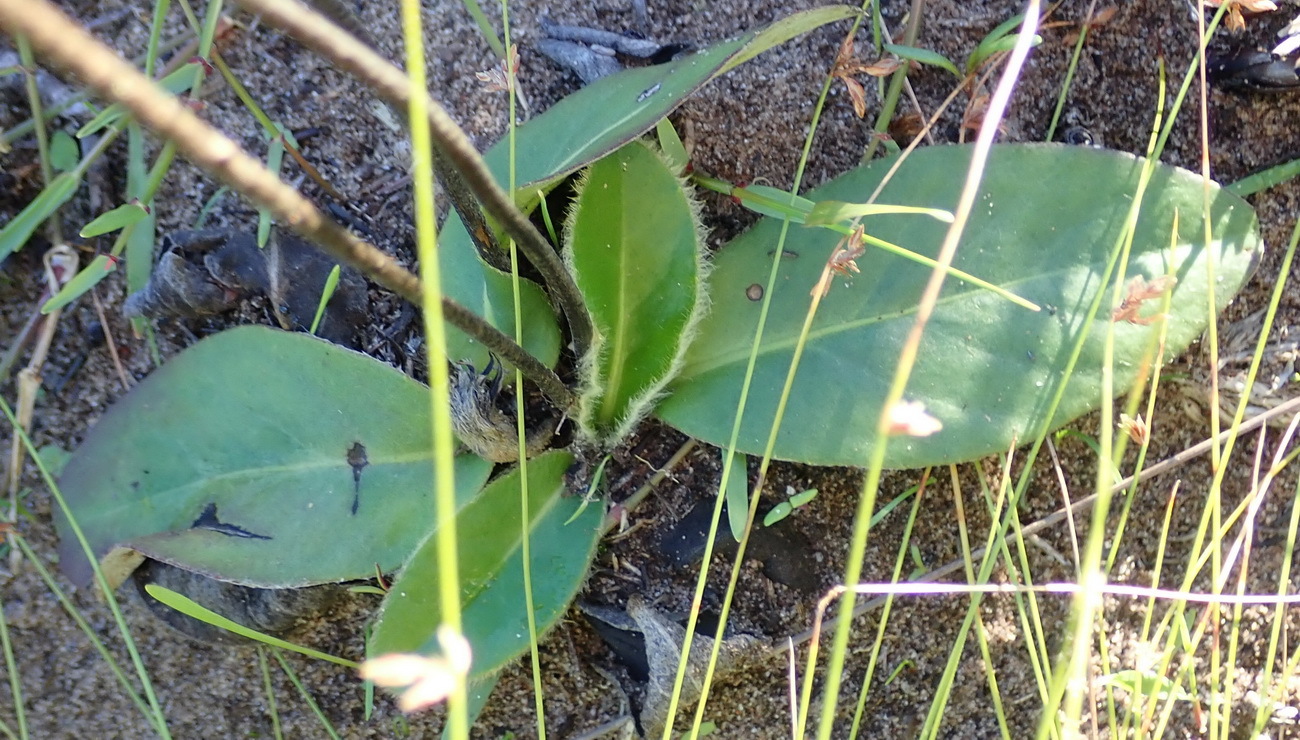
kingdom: Plantae
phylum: Tracheophyta
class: Magnoliopsida
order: Asterales
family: Asteraceae
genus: Piloselloides
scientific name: Piloselloides hirsuta
